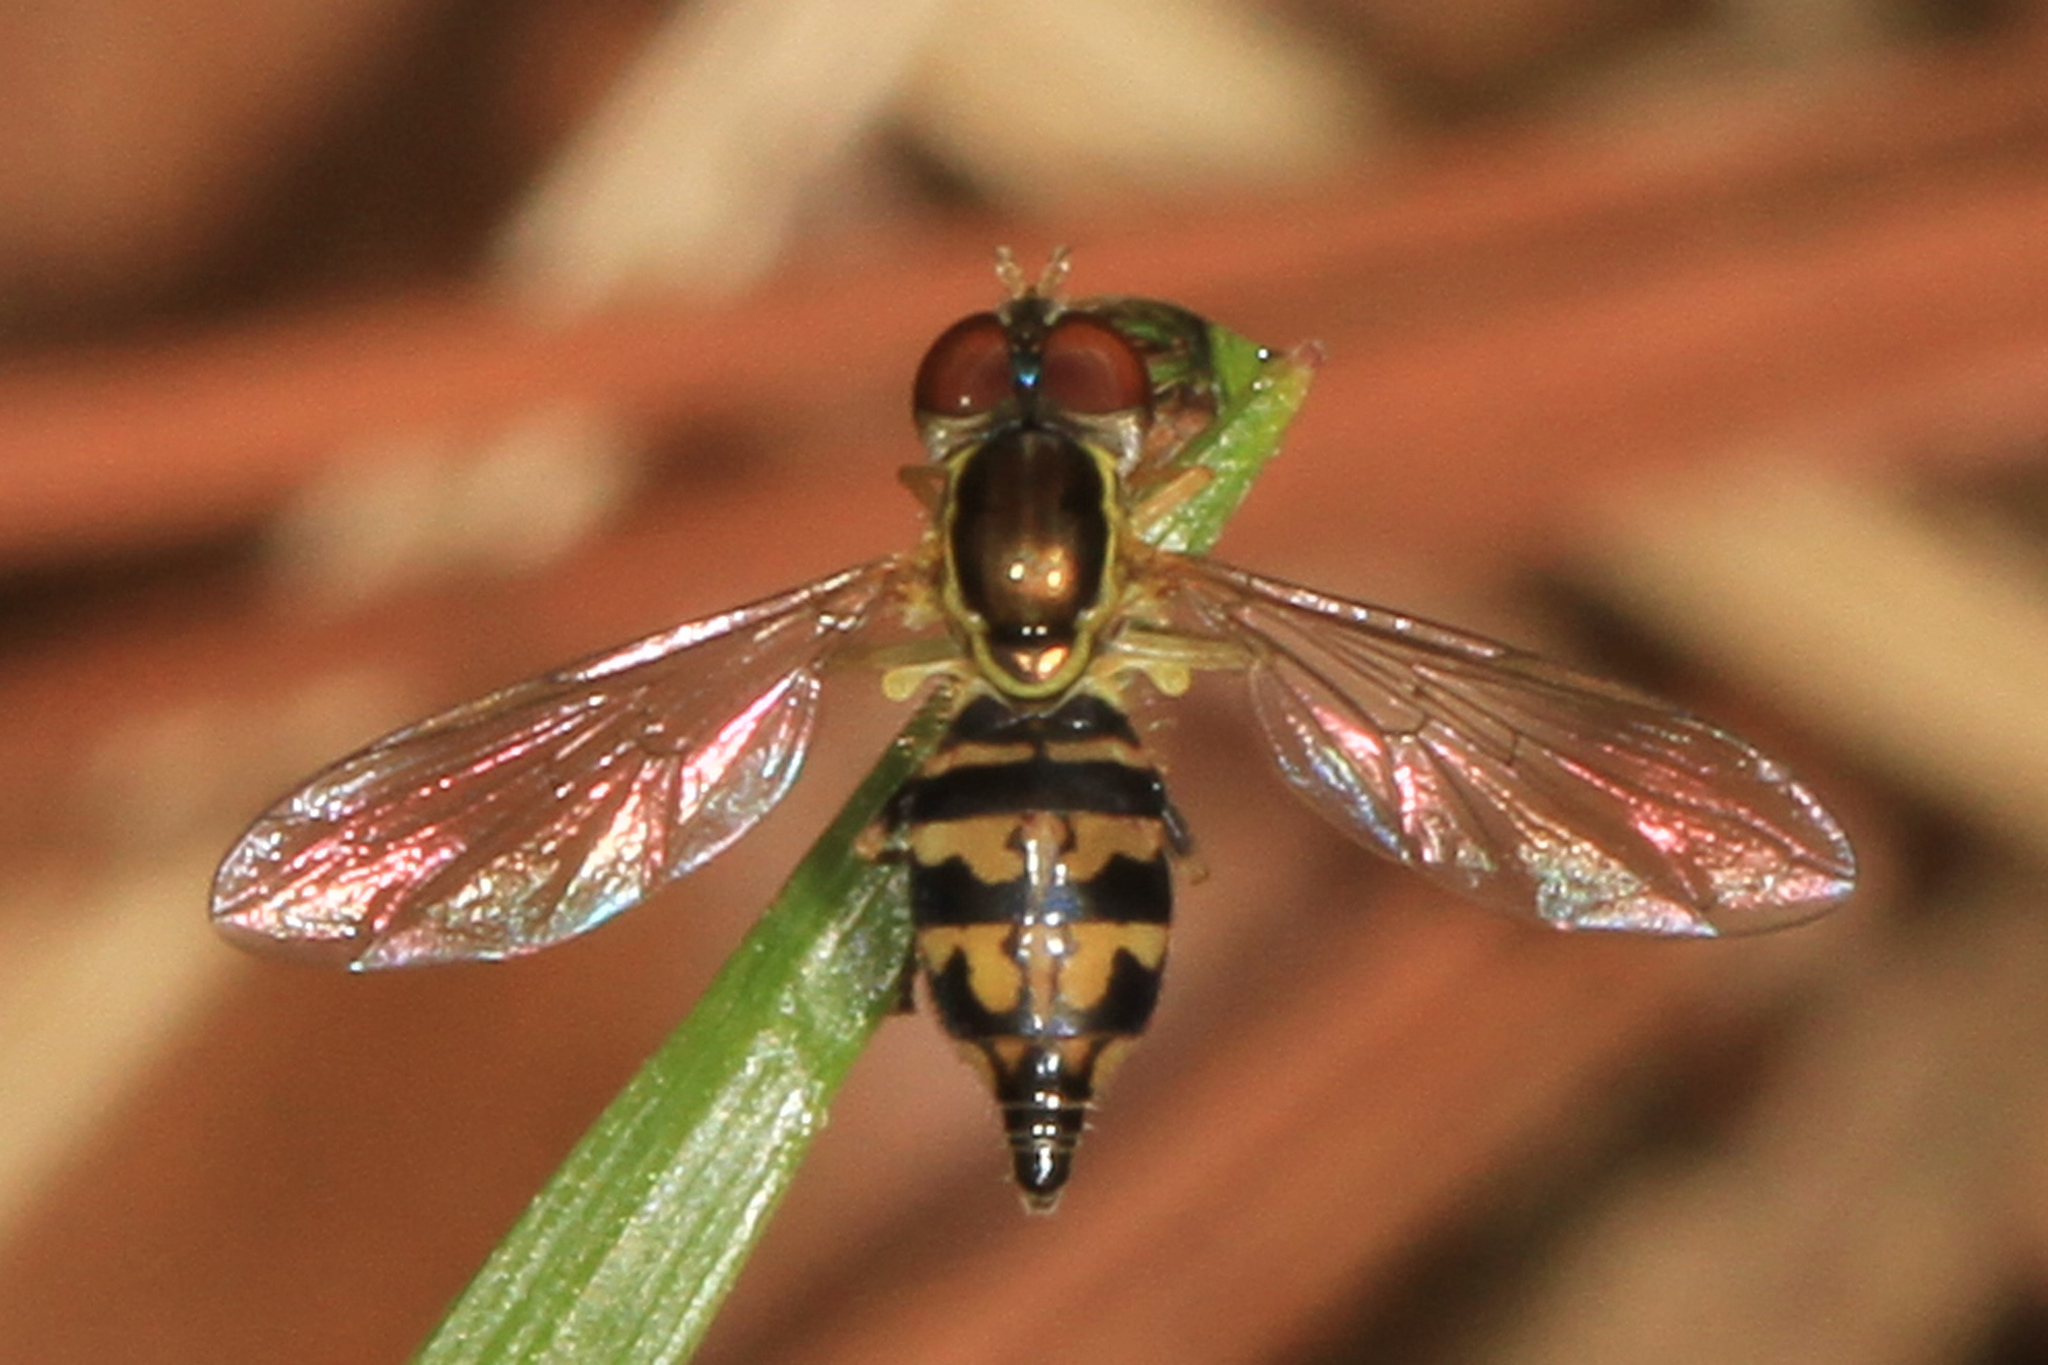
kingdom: Animalia
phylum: Arthropoda
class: Insecta
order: Diptera
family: Syrphidae
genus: Toxomerus
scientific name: Toxomerus geminatus
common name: Eastern calligrapher
